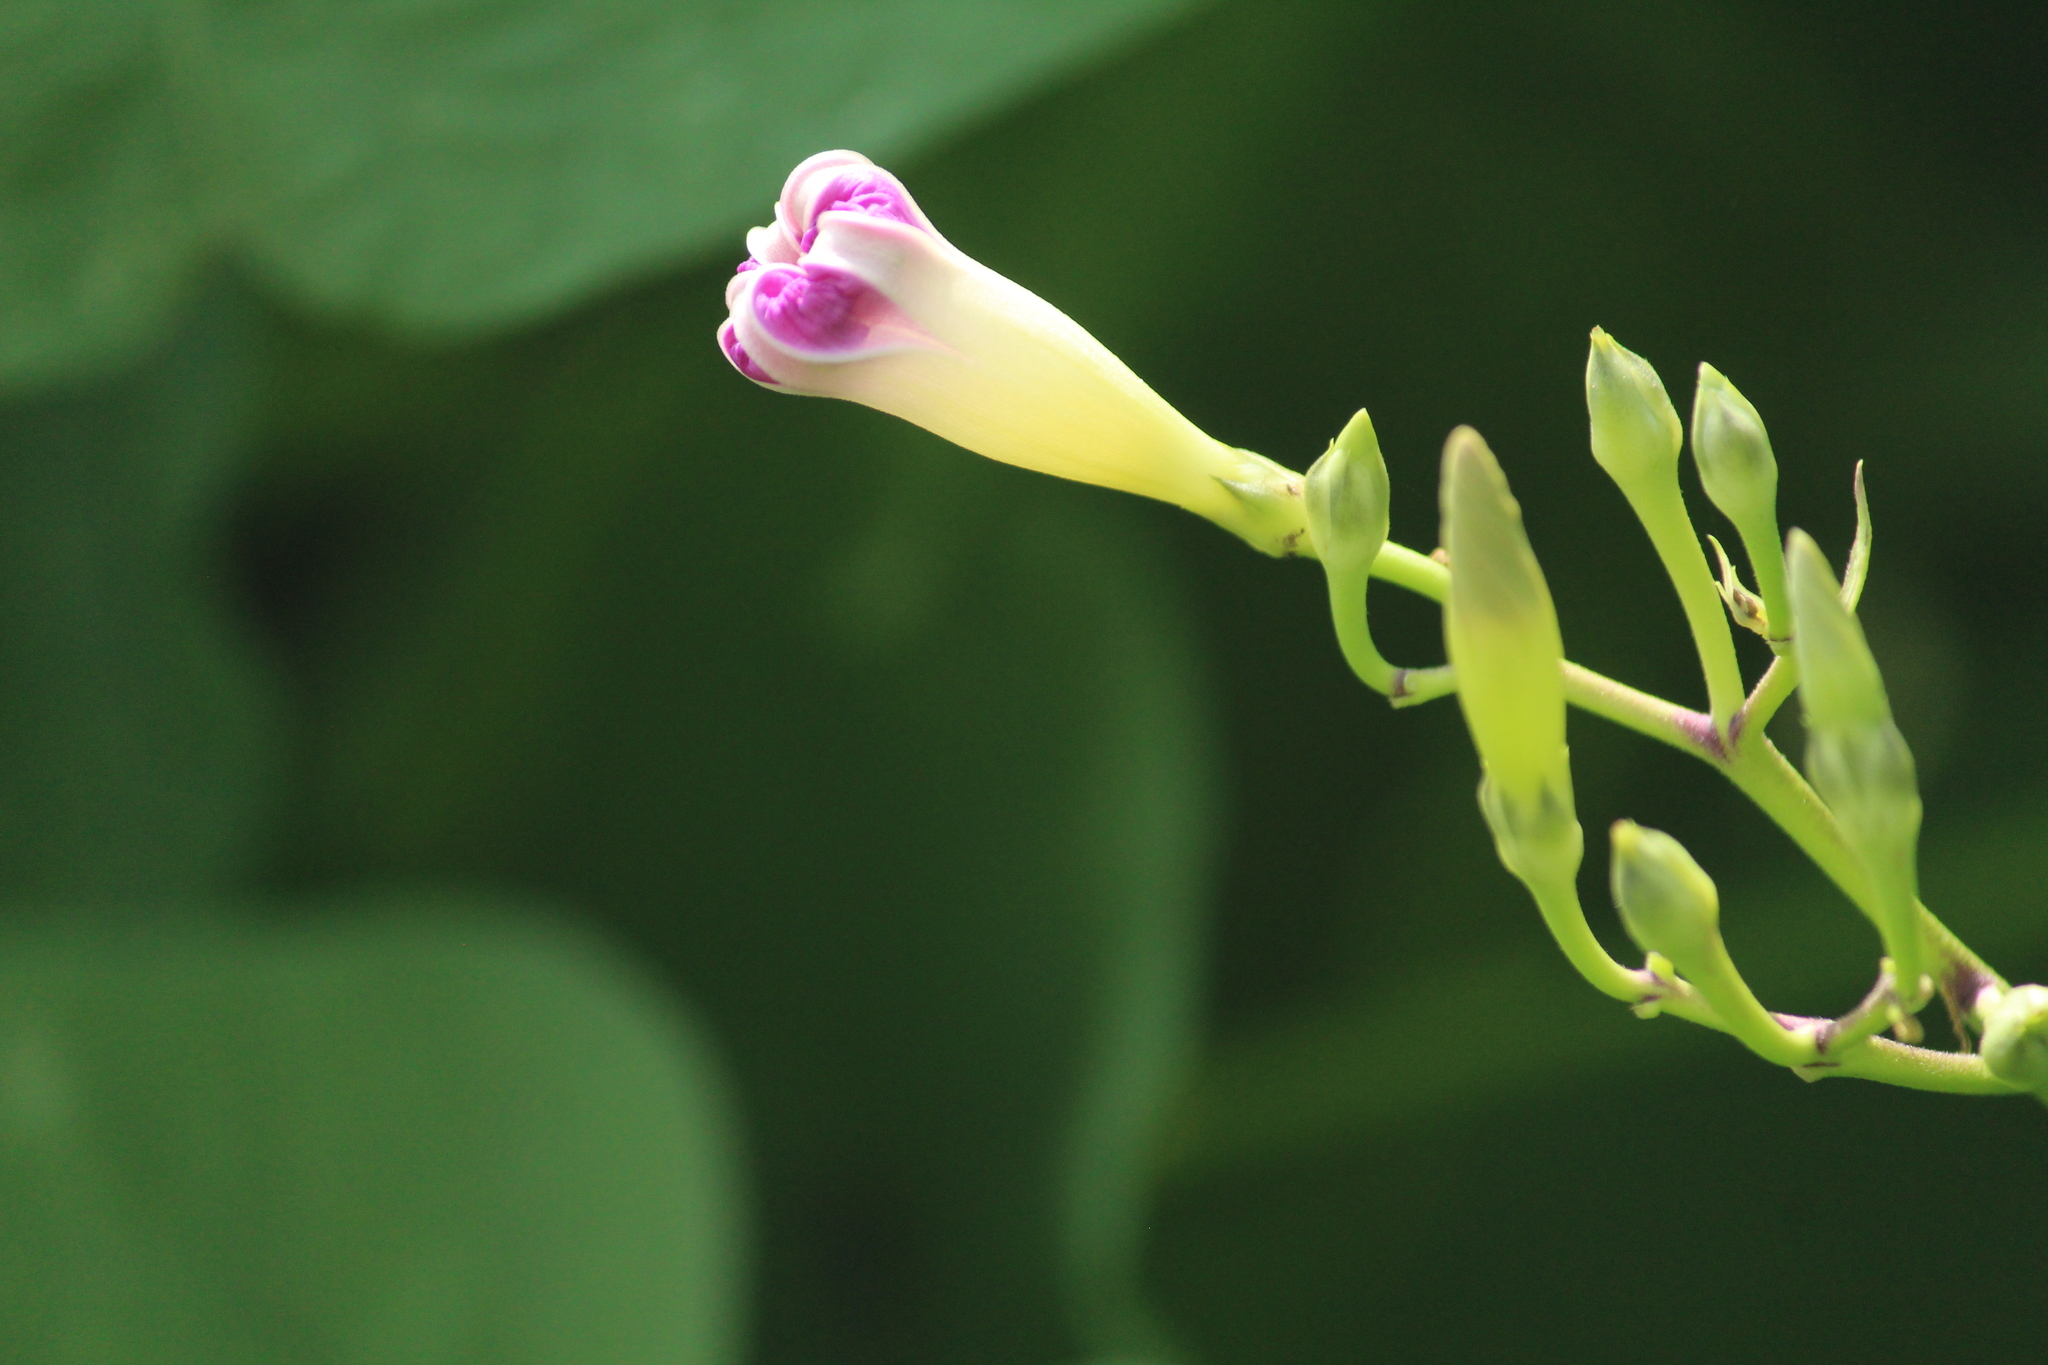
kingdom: Plantae
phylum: Tracheophyta
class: Magnoliopsida
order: Solanales
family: Convolvulaceae
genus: Ipomoea
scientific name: Ipomoea parasitica
